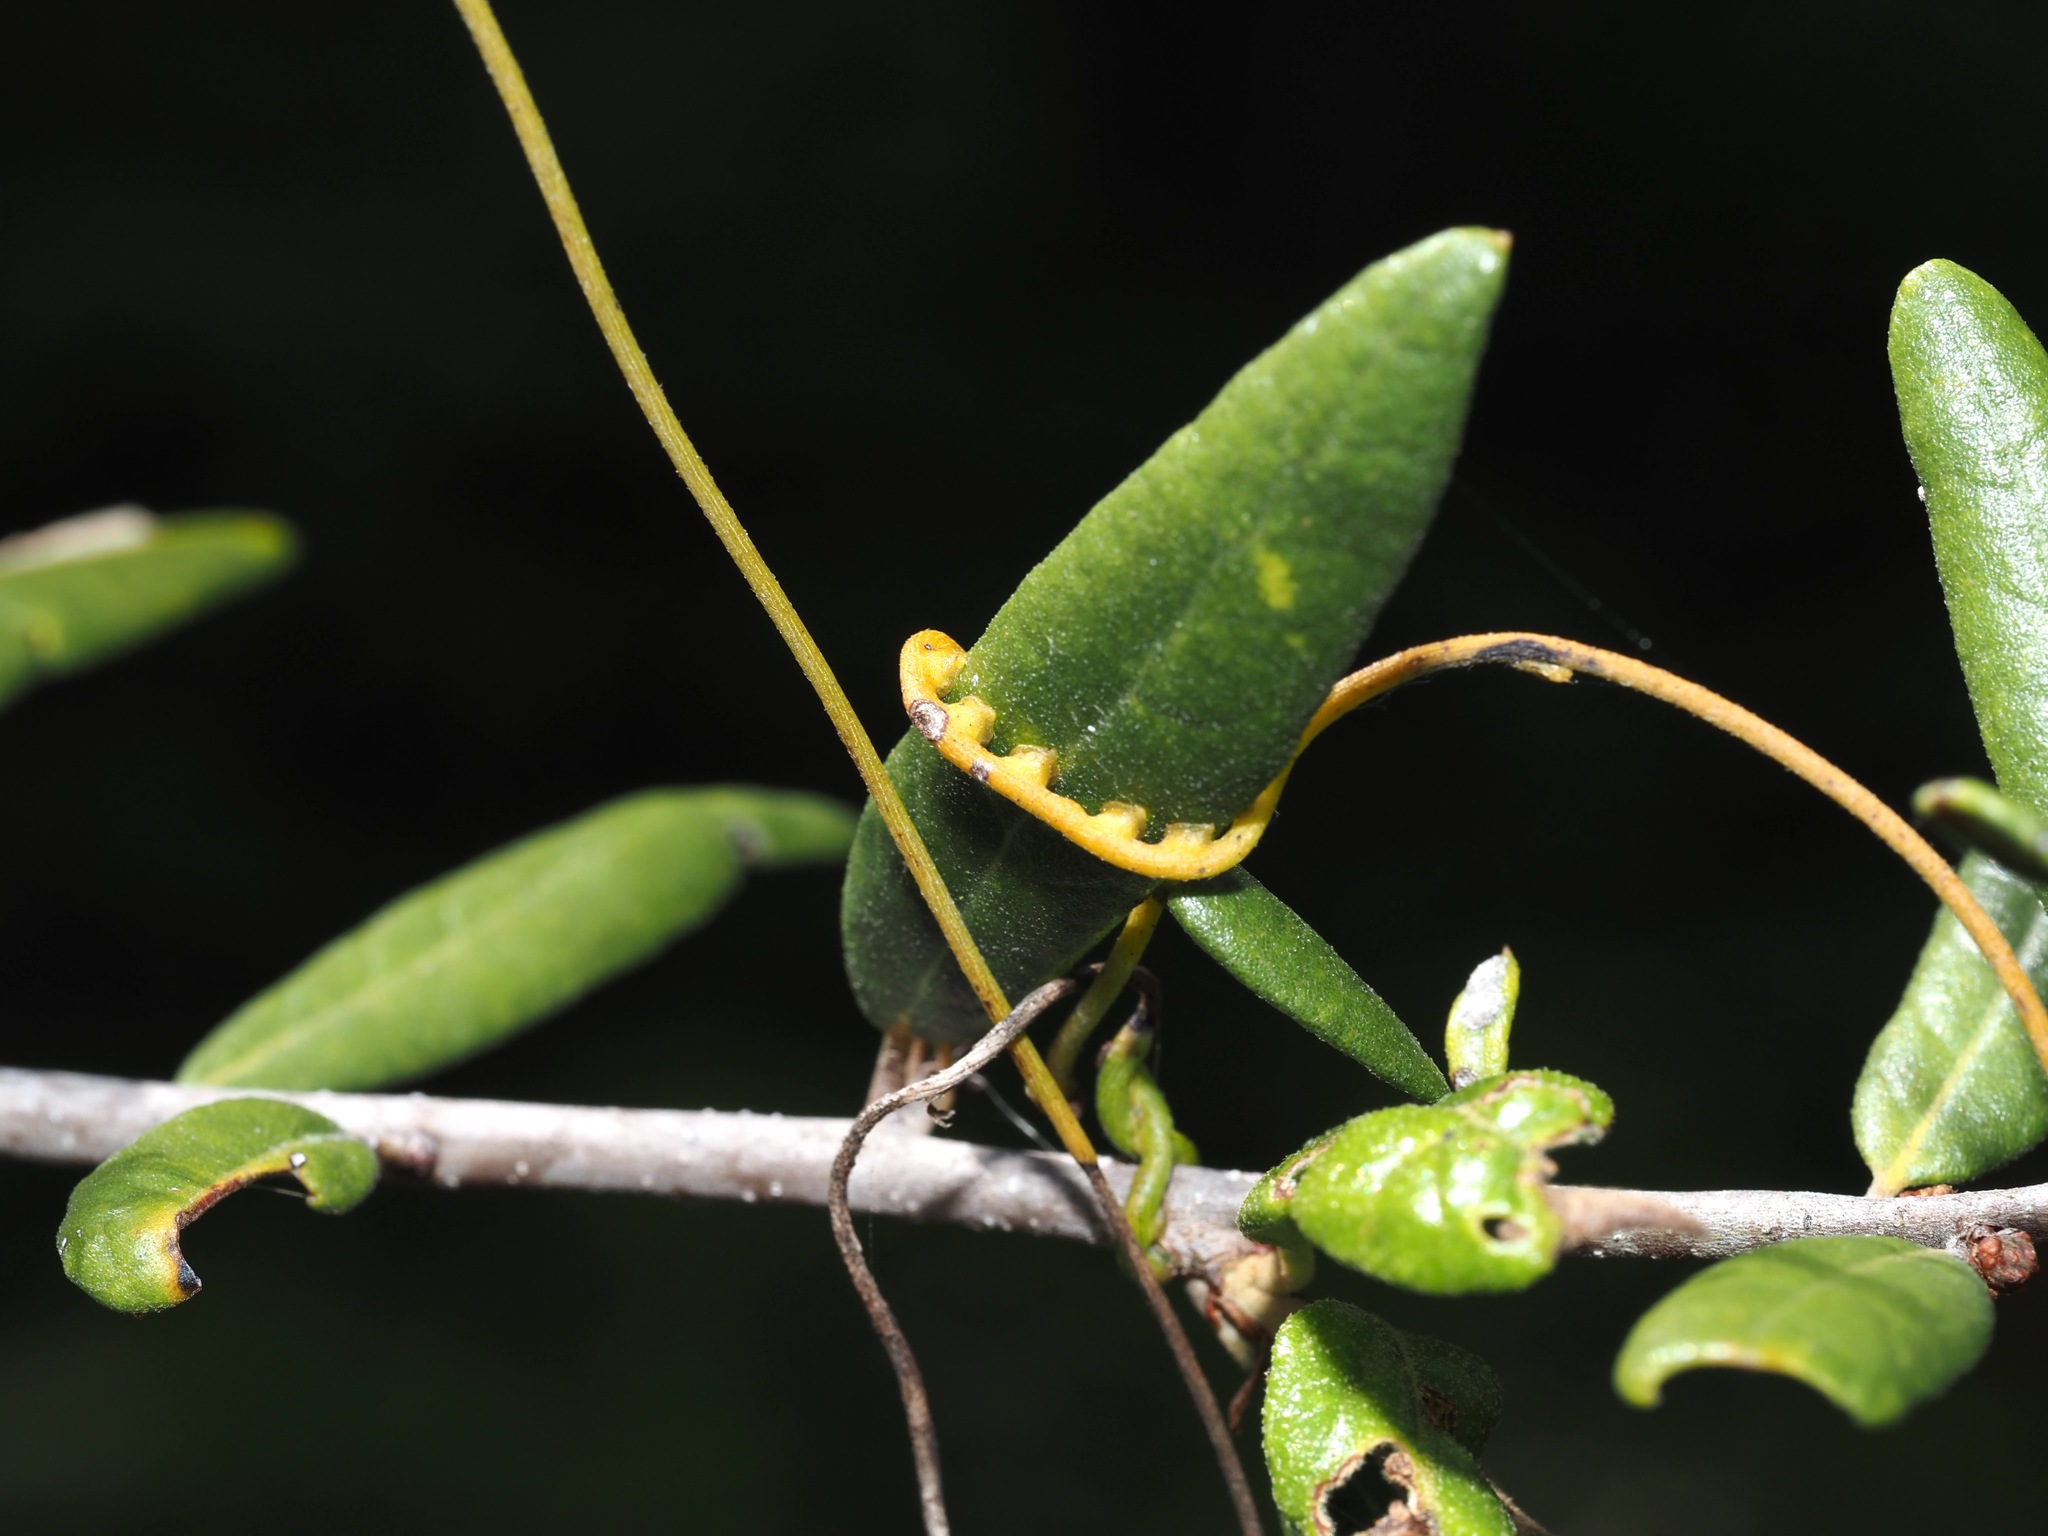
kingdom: Plantae
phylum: Tracheophyta
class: Magnoliopsida
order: Laurales
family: Lauraceae
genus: Cassytha
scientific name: Cassytha filiformis
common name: Dodder-laurel
